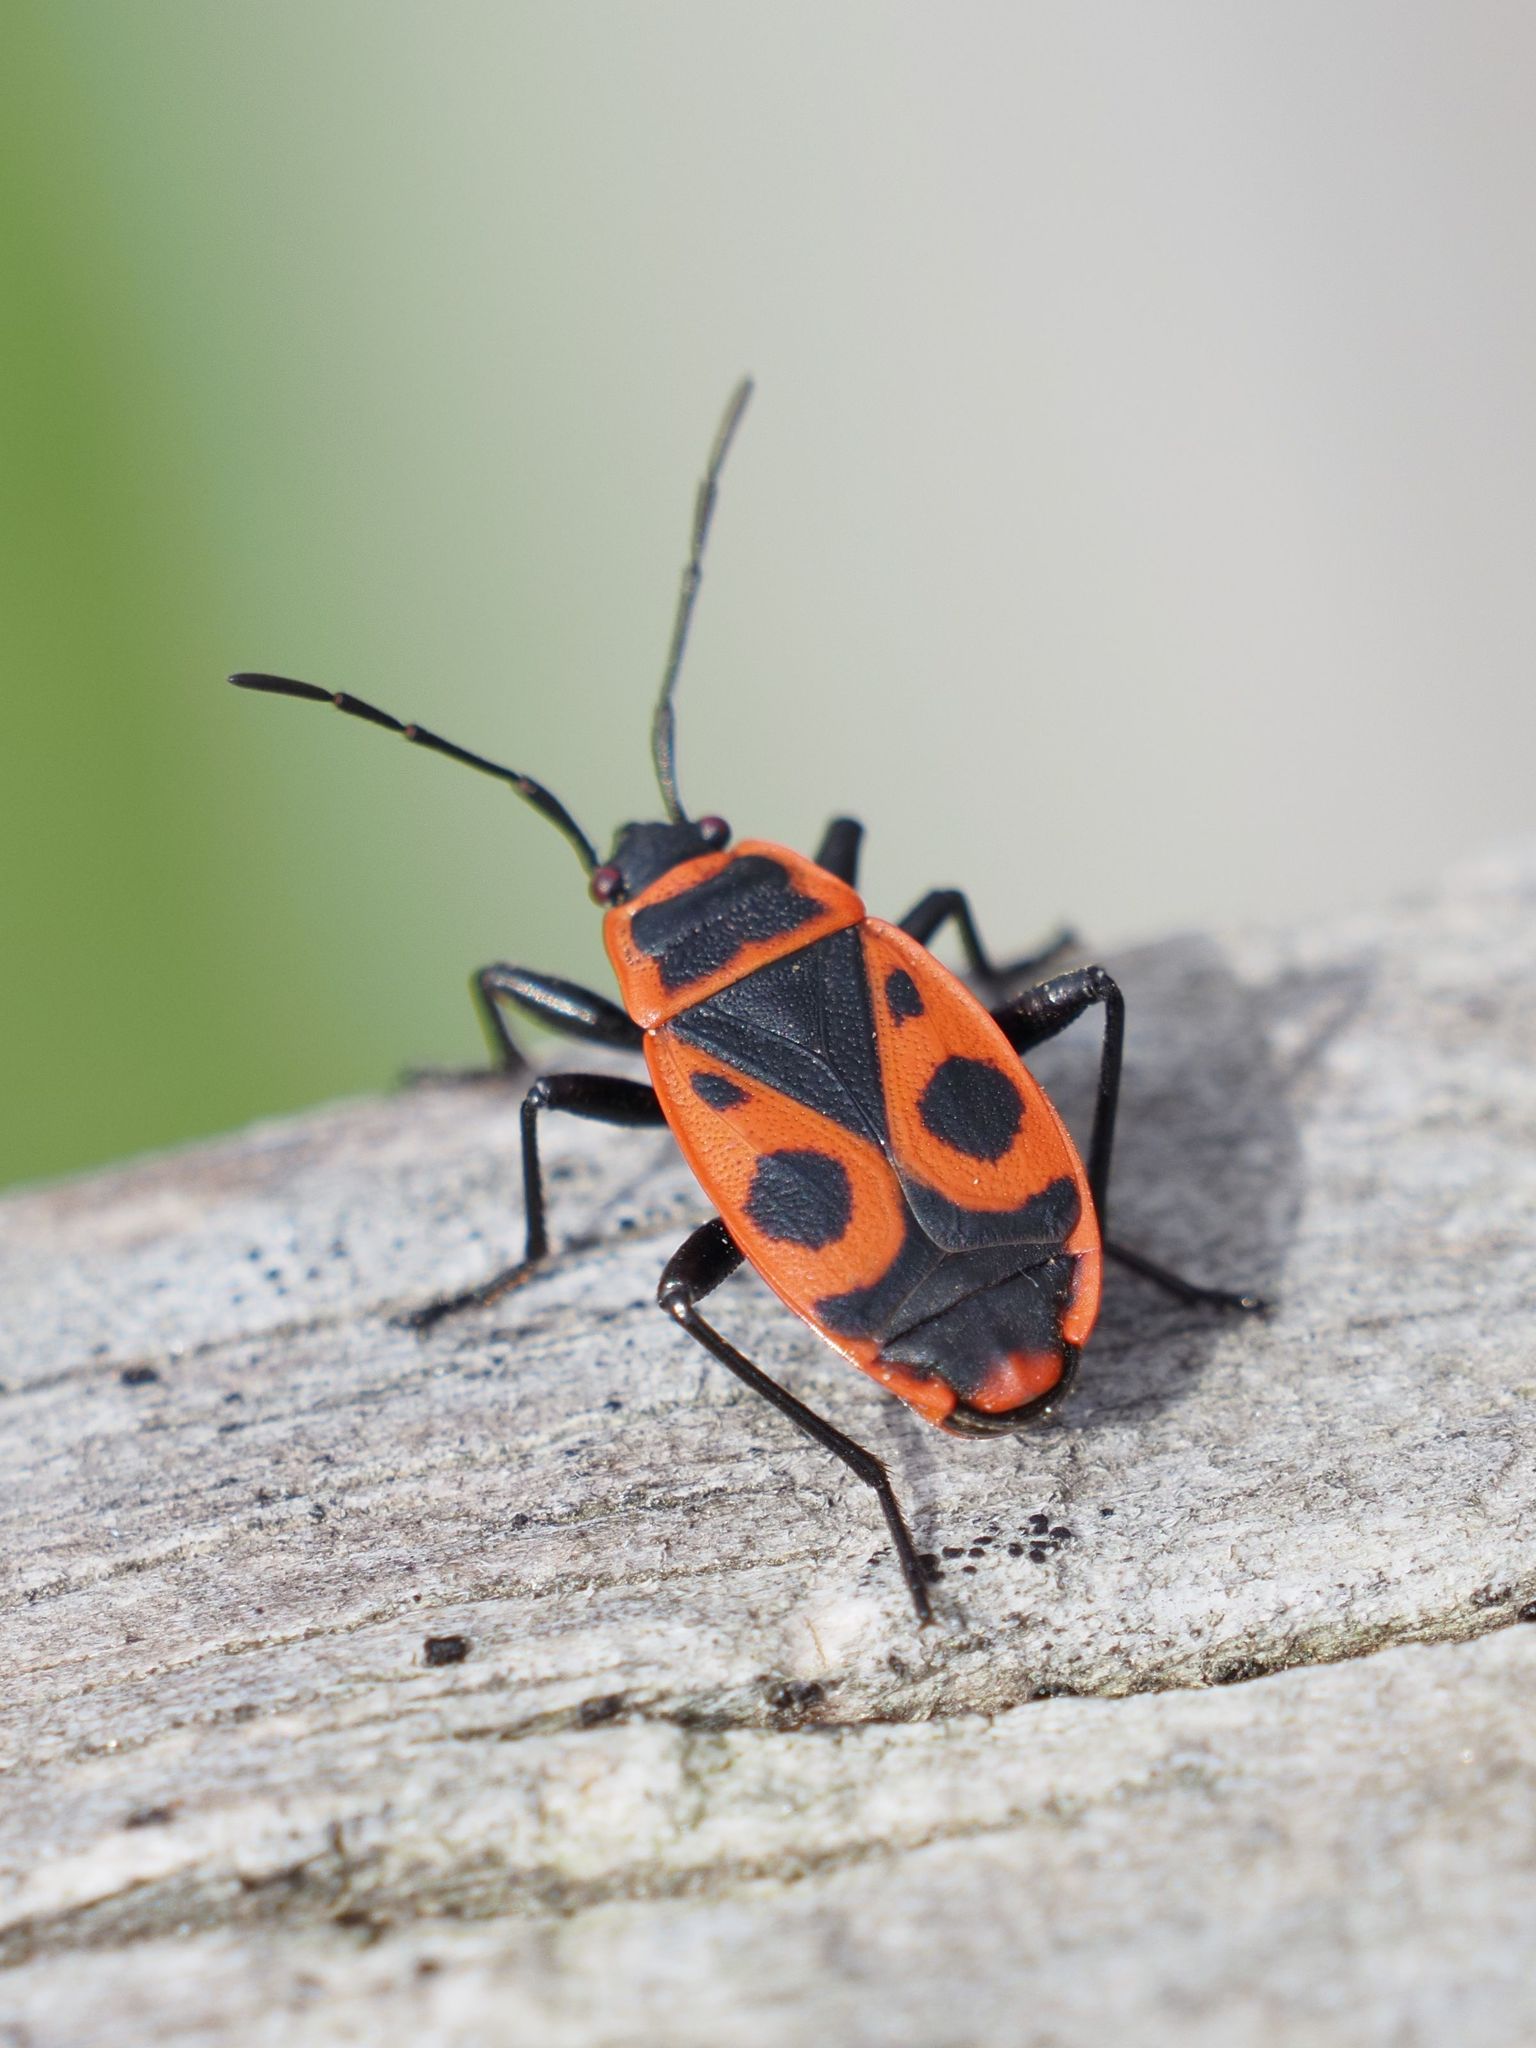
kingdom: Animalia
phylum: Arthropoda
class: Insecta
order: Hemiptera
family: Pyrrhocoridae
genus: Pyrrhocoris
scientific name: Pyrrhocoris apterus
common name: Firebug
